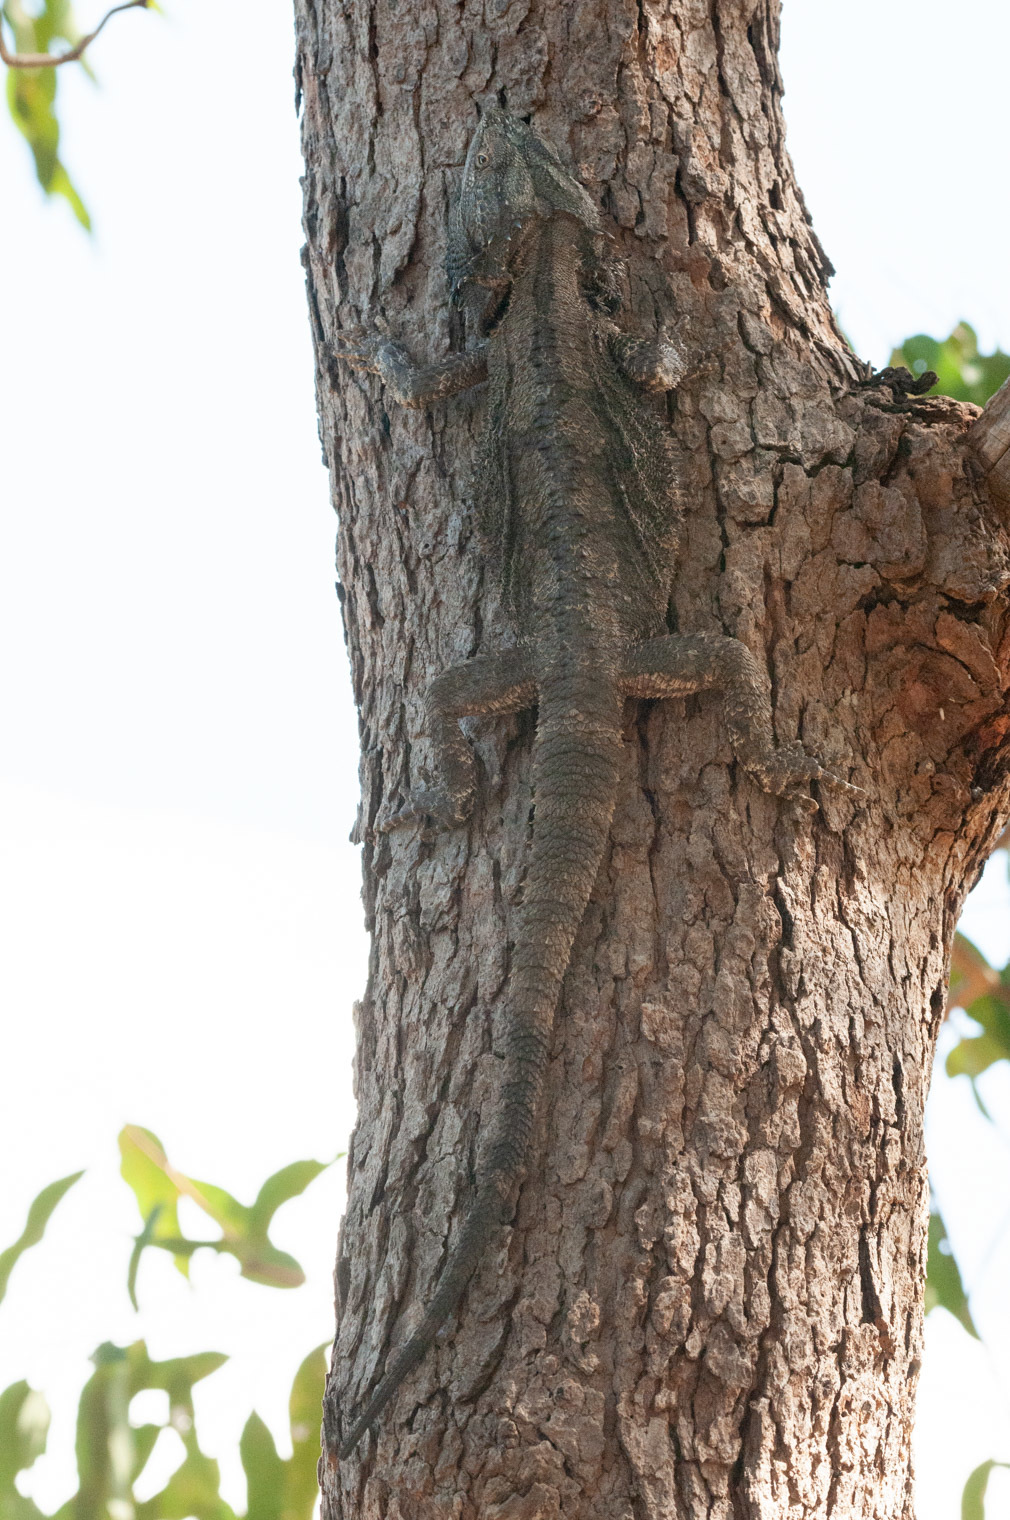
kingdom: Animalia
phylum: Chordata
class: Squamata
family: Agamidae
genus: Pogona
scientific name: Pogona barbata
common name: Bearded dragon
